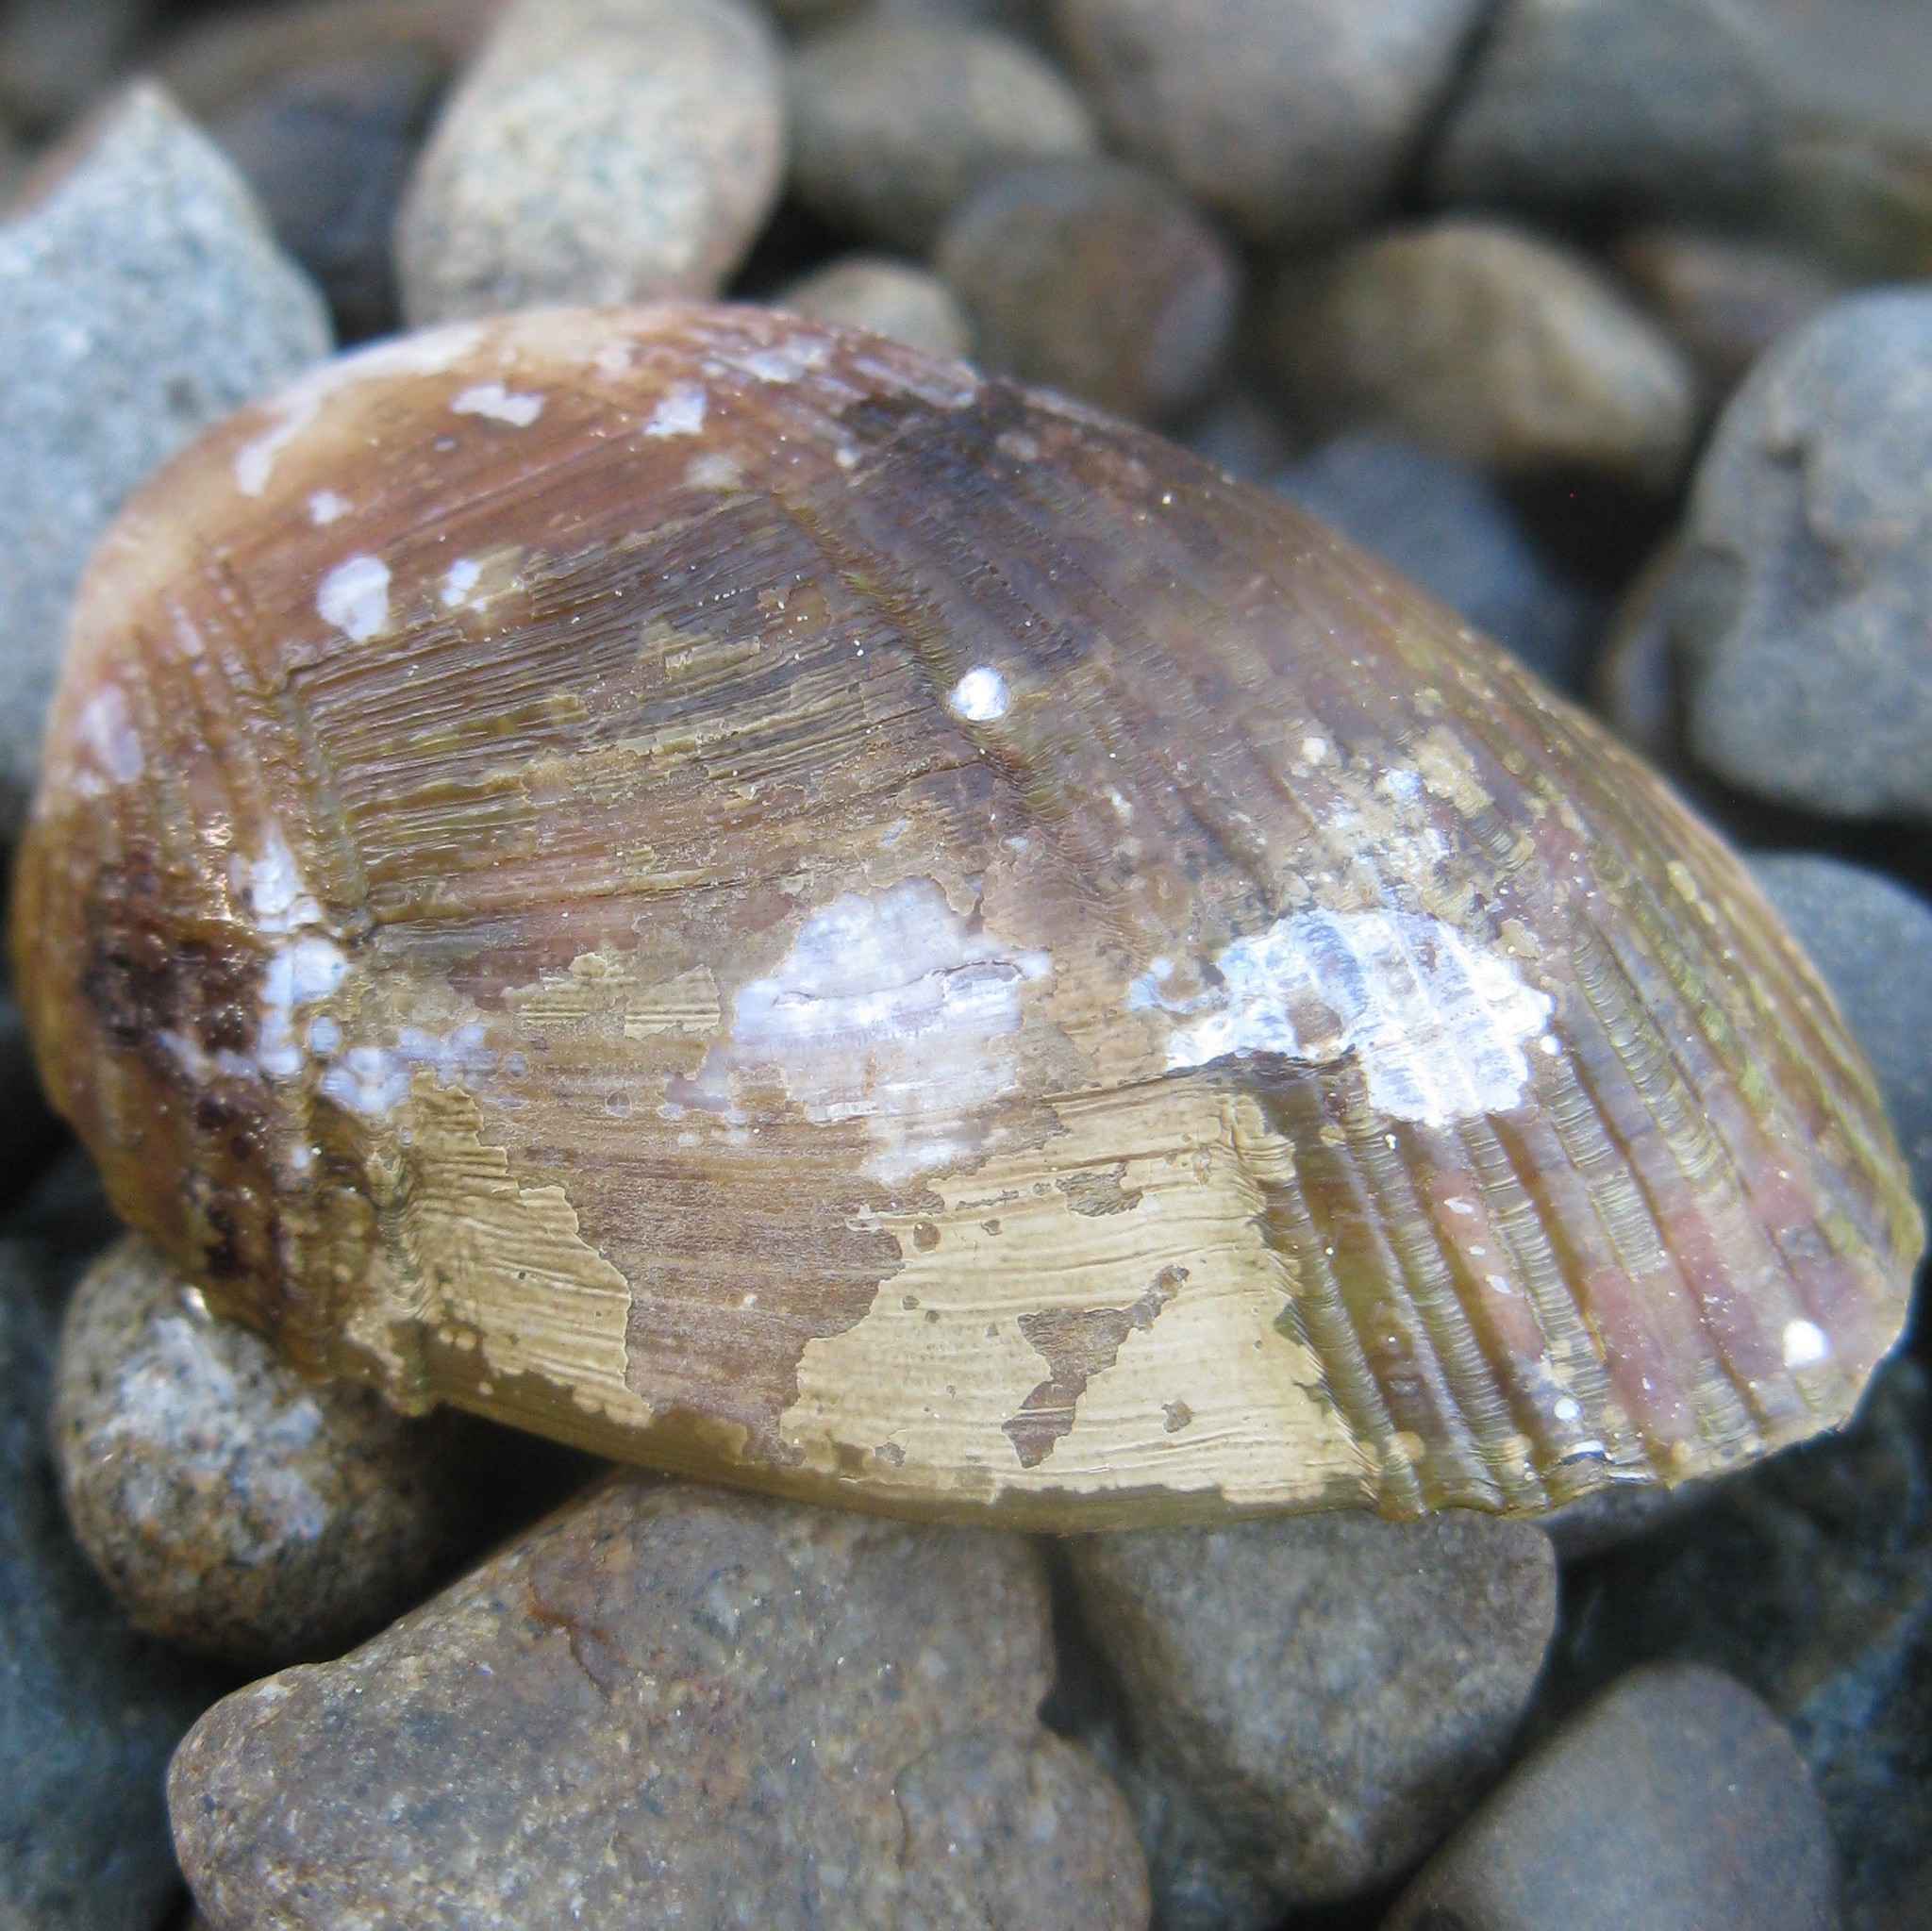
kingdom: Animalia
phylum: Mollusca
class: Bivalvia
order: Mytilida
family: Mytilidae
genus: Musculus
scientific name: Musculus impactus
